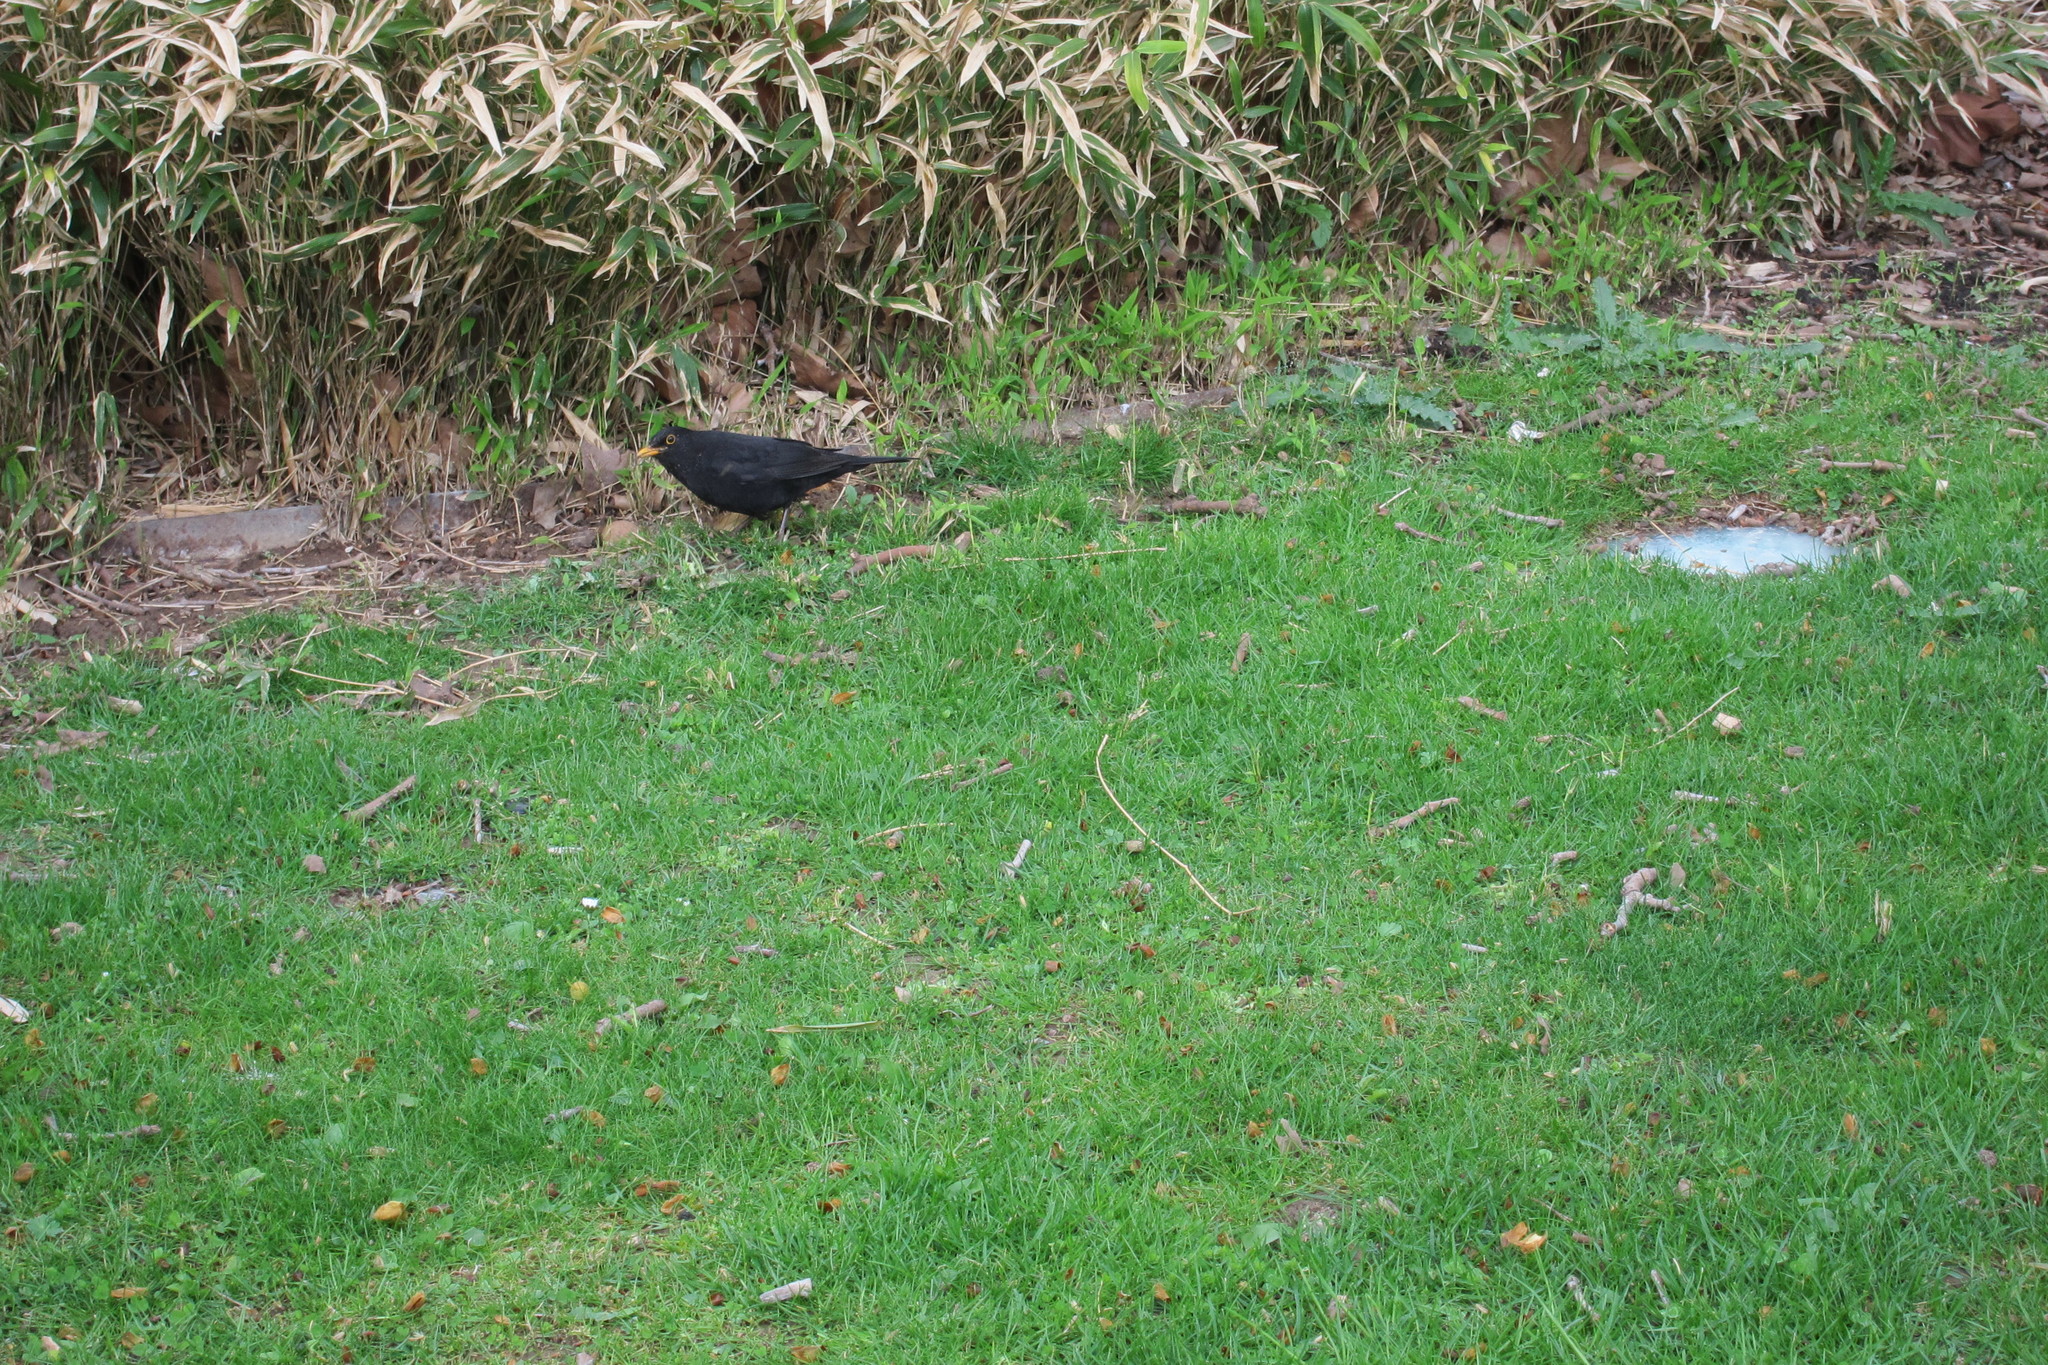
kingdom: Animalia
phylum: Chordata
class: Aves
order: Passeriformes
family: Turdidae
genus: Turdus
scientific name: Turdus merula
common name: Common blackbird
